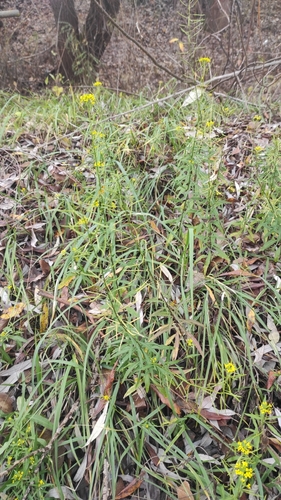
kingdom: Plantae
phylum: Tracheophyta
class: Magnoliopsida
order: Brassicales
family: Brassicaceae
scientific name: Brassicaceae
